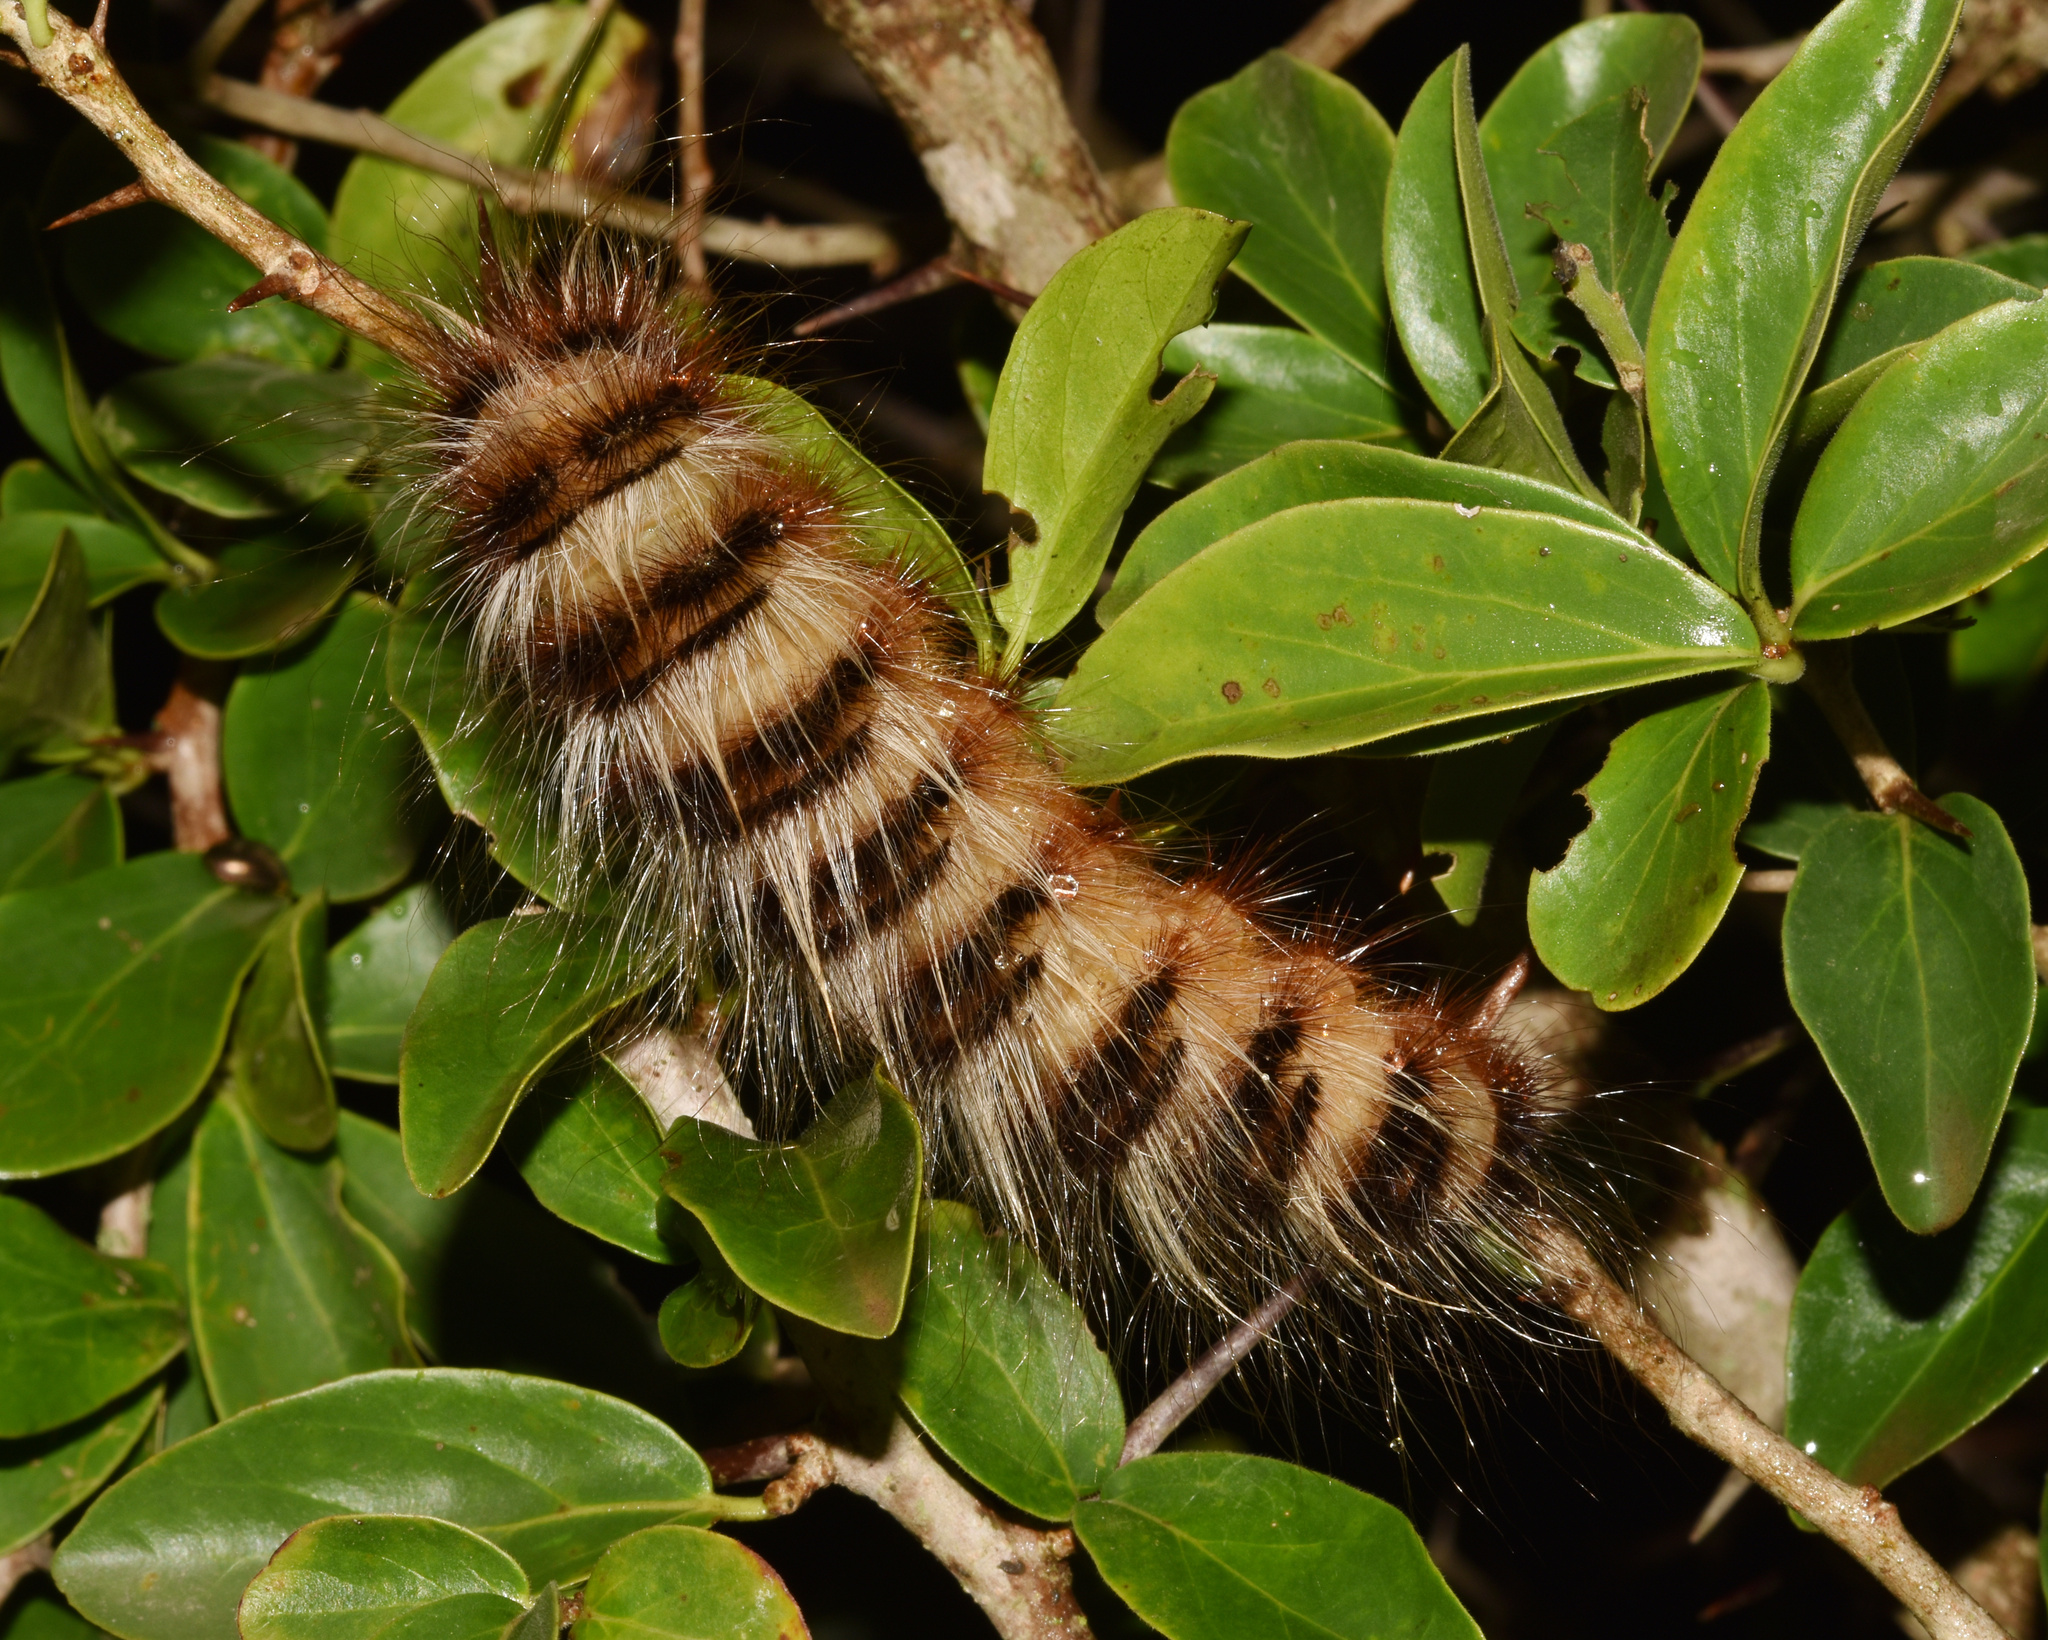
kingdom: Animalia
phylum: Arthropoda
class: Insecta
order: Lepidoptera
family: Eupterotidae
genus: Striphnopteryx
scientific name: Striphnopteryx edulis
